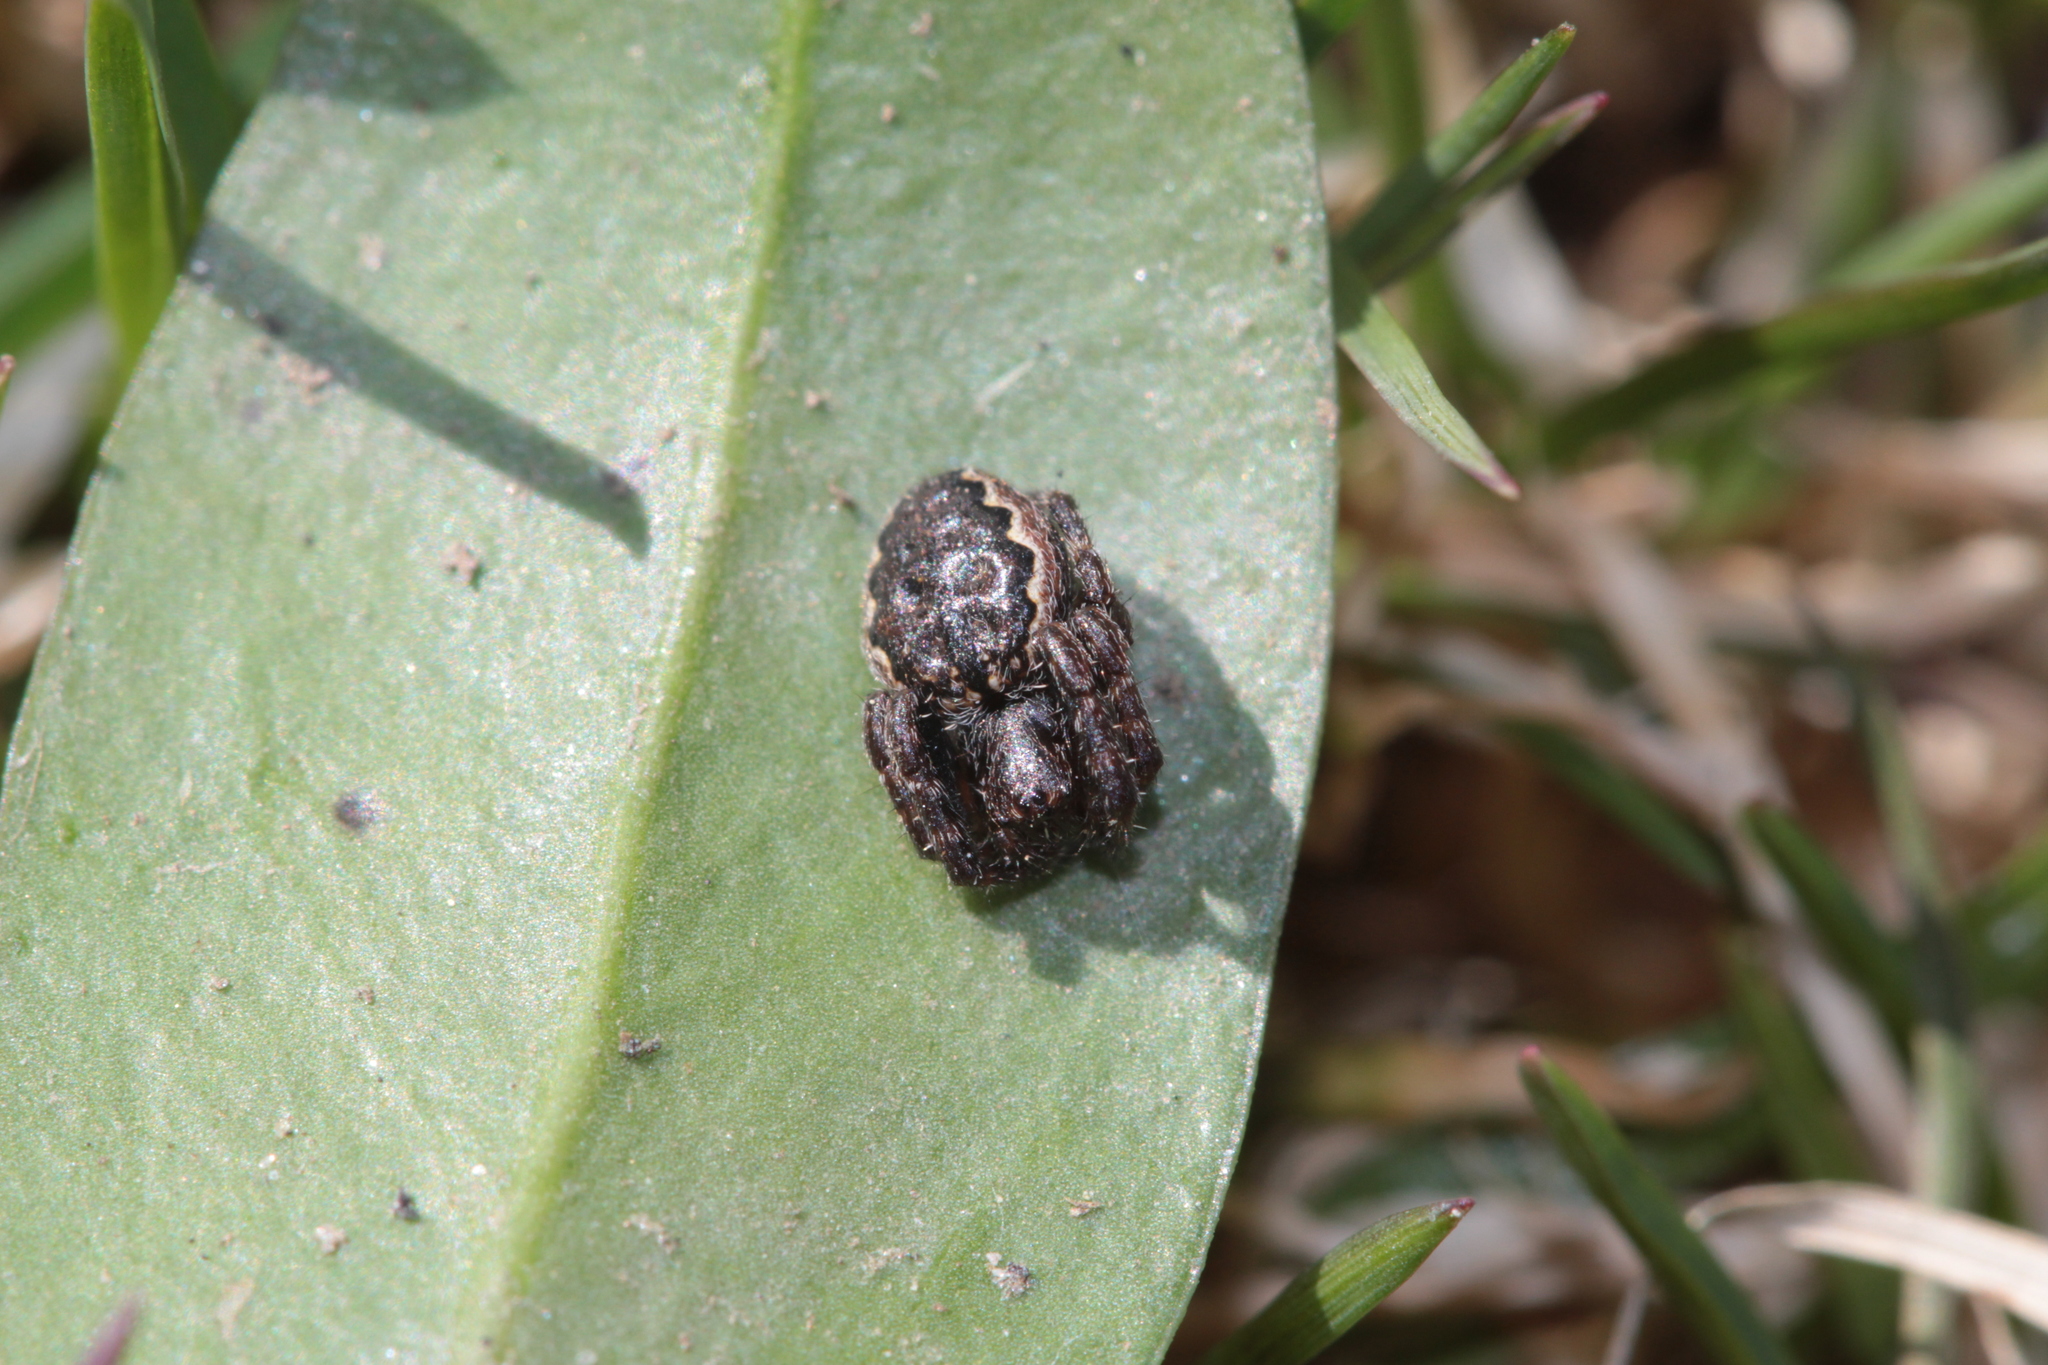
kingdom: Animalia
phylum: Arthropoda
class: Arachnida
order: Araneae
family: Araneidae
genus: Nuctenea
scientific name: Nuctenea umbratica
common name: Toad spider
